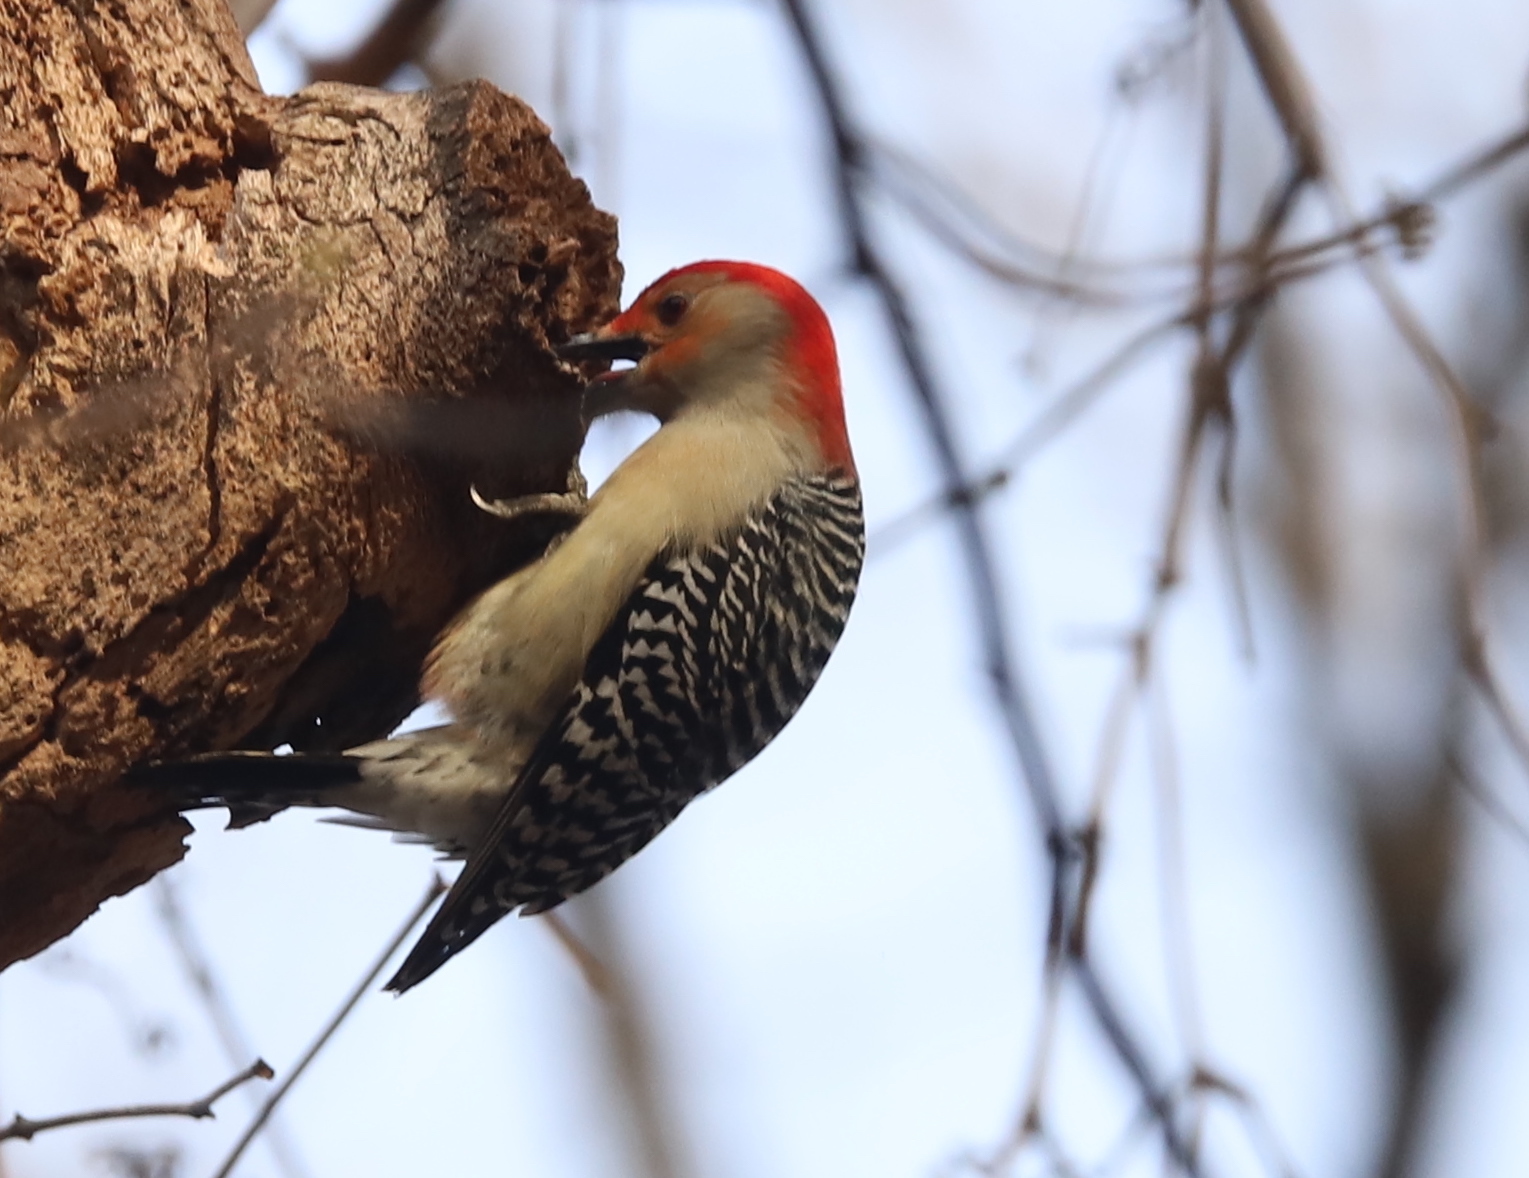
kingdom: Animalia
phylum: Chordata
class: Aves
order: Piciformes
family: Picidae
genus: Melanerpes
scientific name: Melanerpes carolinus
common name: Red-bellied woodpecker
